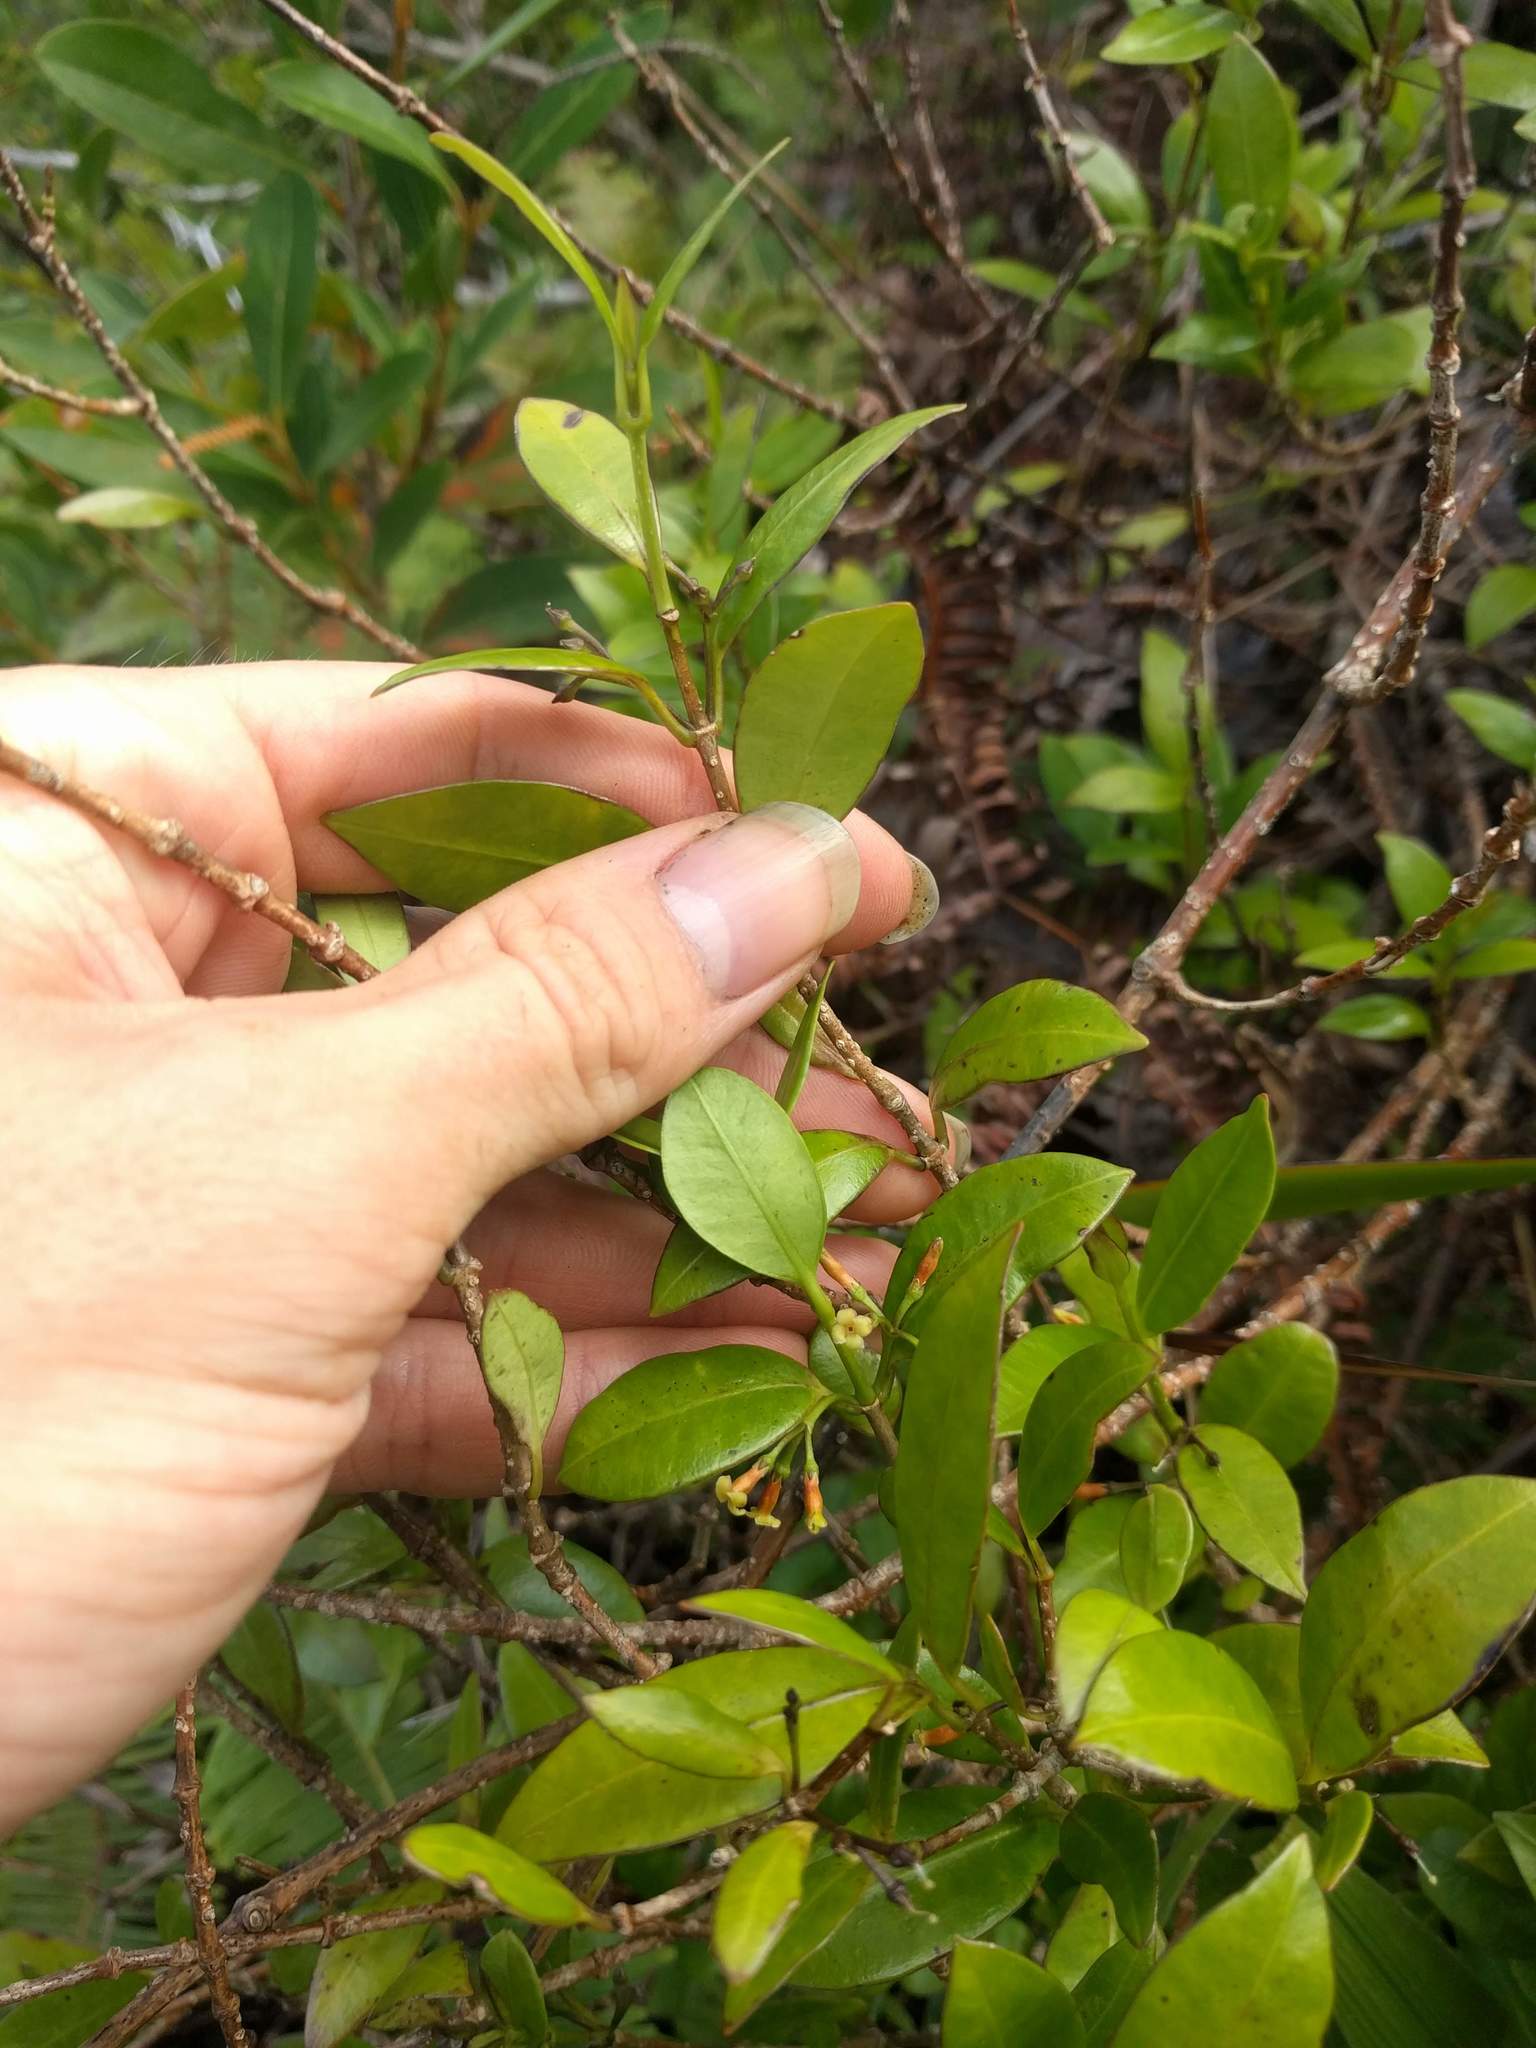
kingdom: Plantae
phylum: Tracheophyta
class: Magnoliopsida
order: Gentianales
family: Apocynaceae
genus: Alyxia
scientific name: Alyxia stellata
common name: Maile
